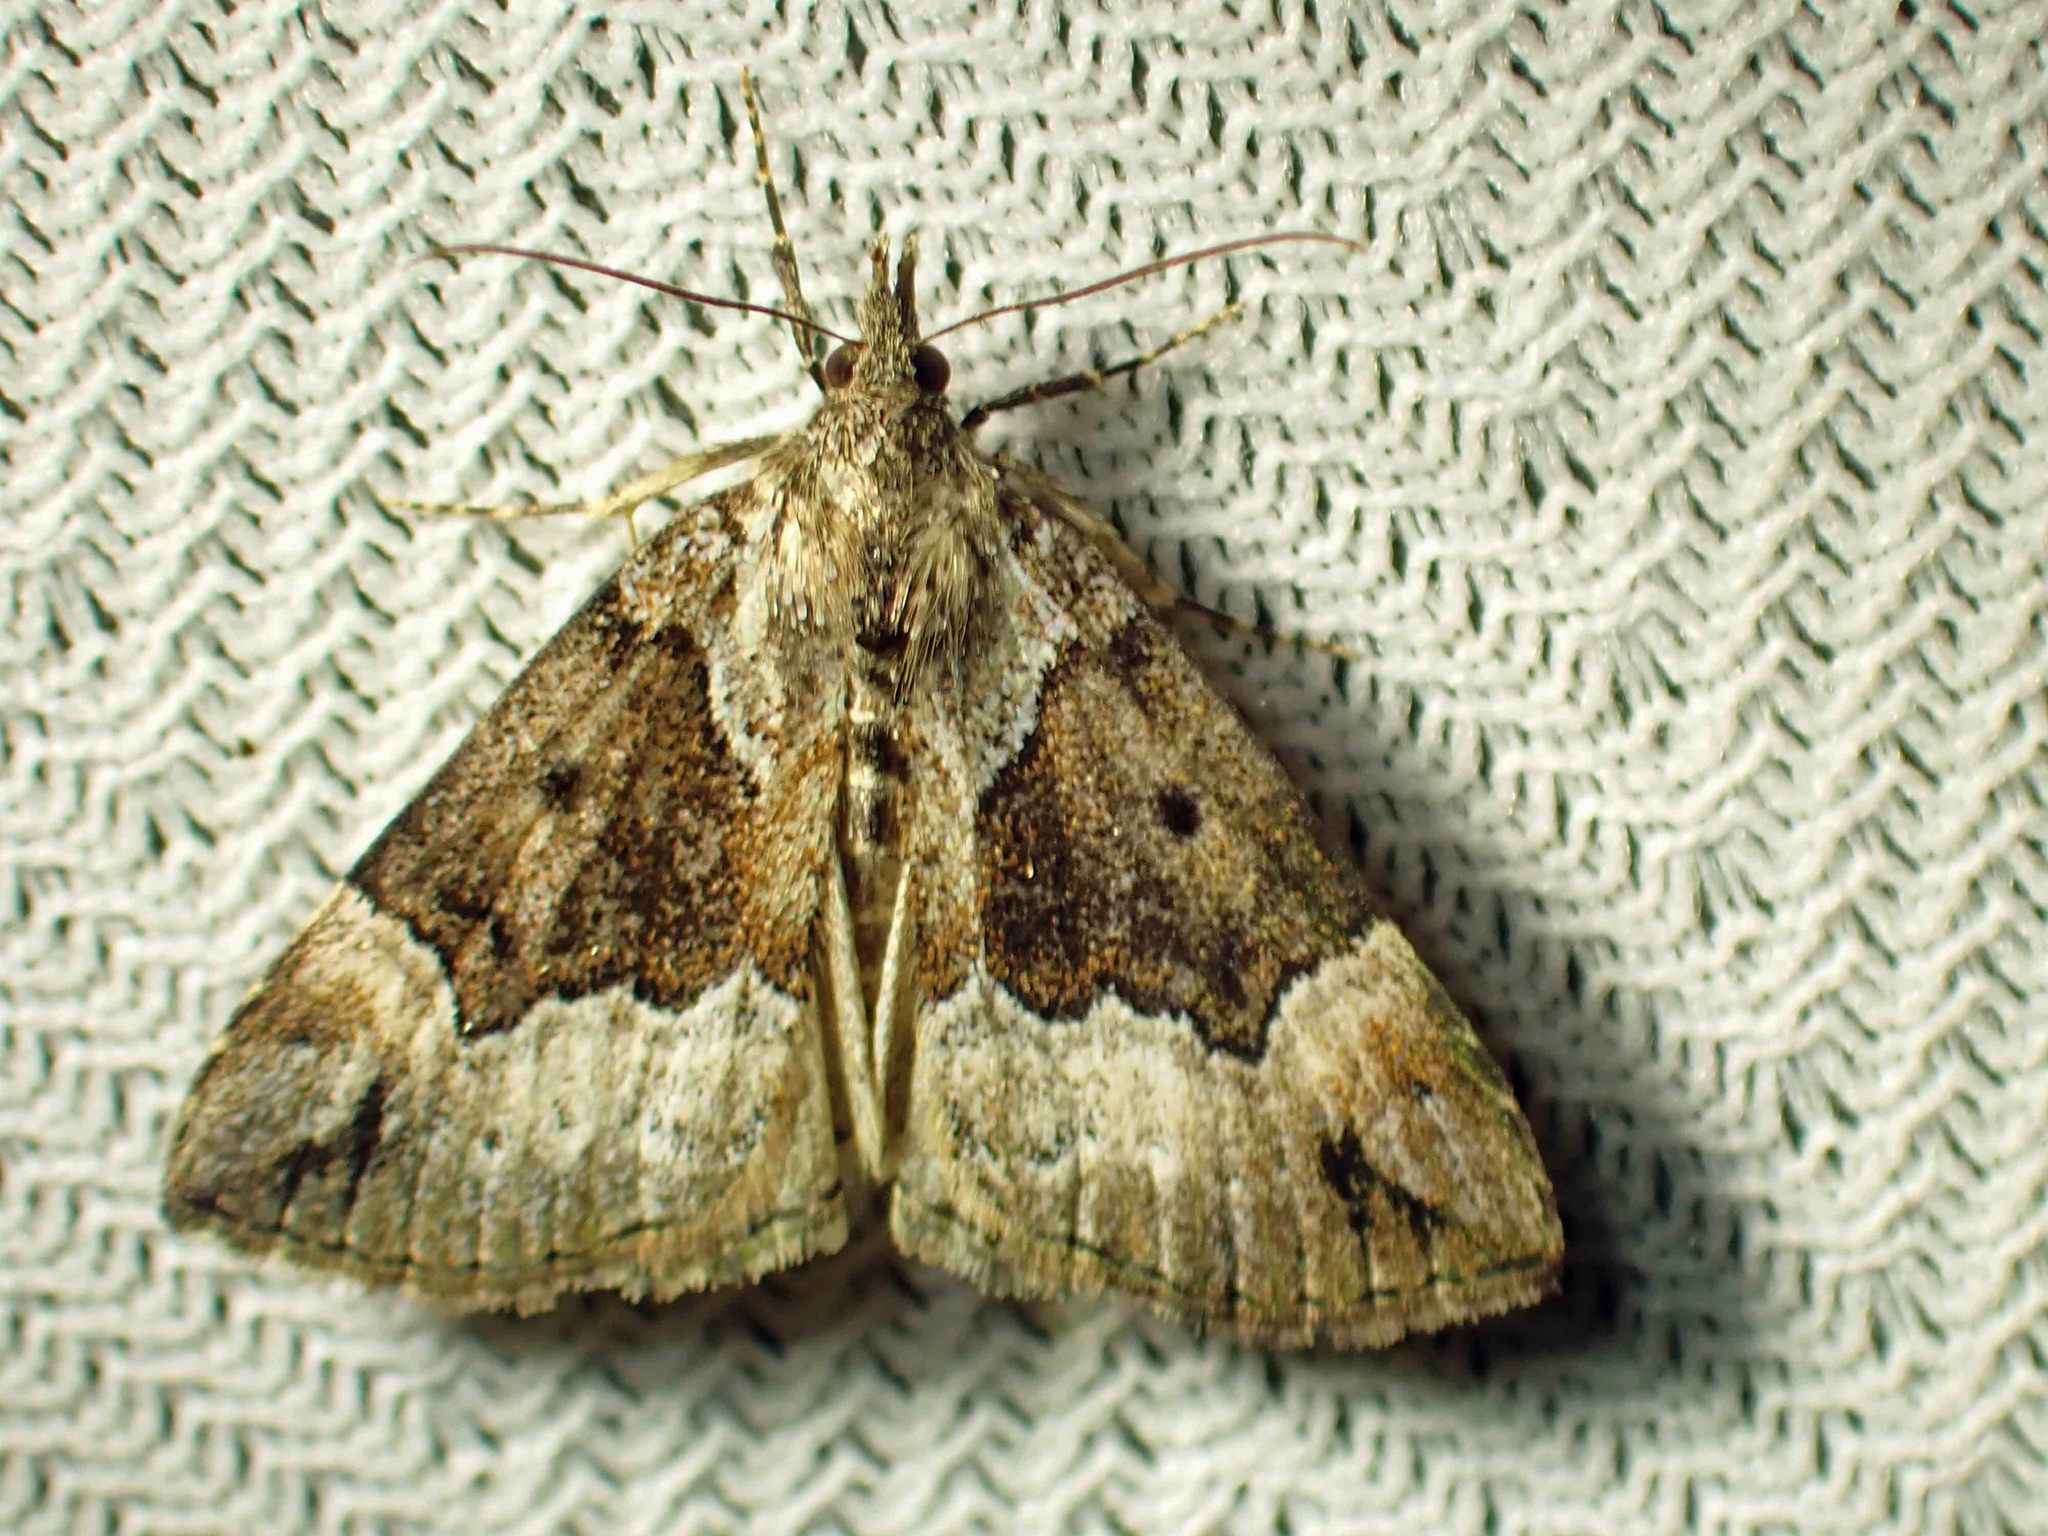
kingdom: Animalia
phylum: Arthropoda
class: Insecta
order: Lepidoptera
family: Erebidae
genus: Hypena
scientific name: Hypena palparia
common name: Mottled bomolocha moth
